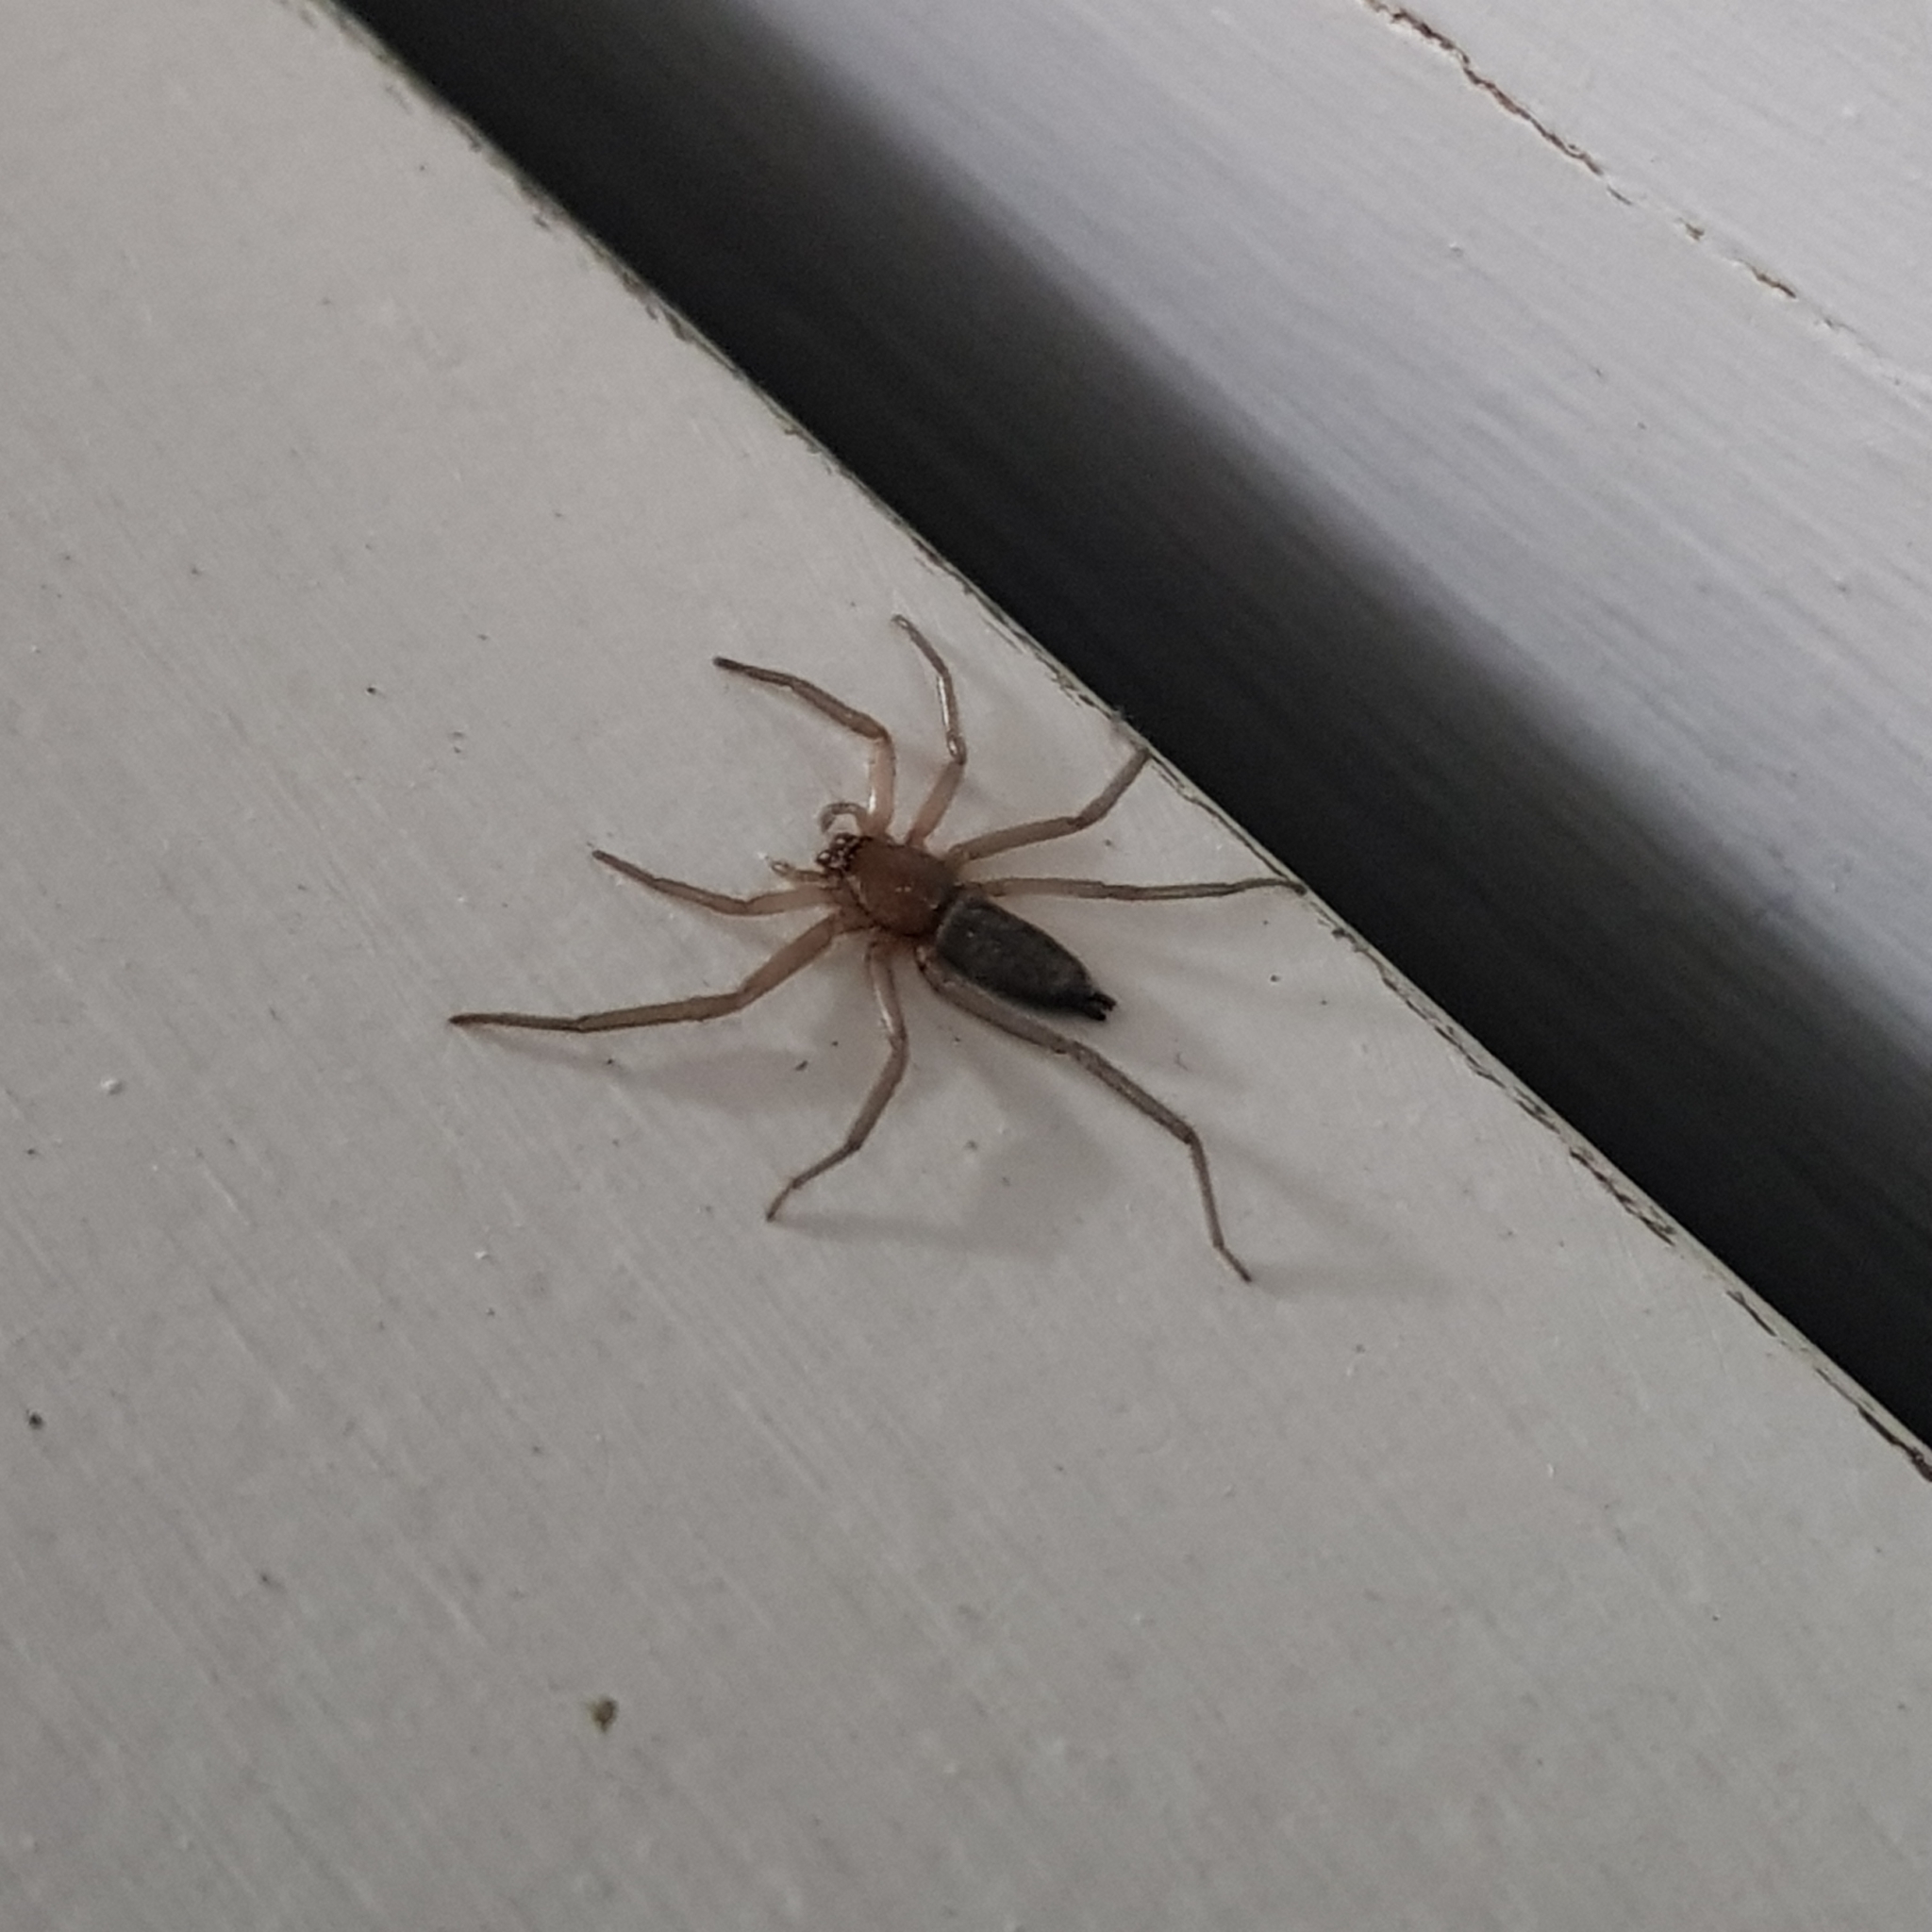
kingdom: Animalia
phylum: Arthropoda
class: Arachnida
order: Araneae
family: Trochanteriidae
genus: Hemicloea
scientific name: Hemicloea rogenhoferi
